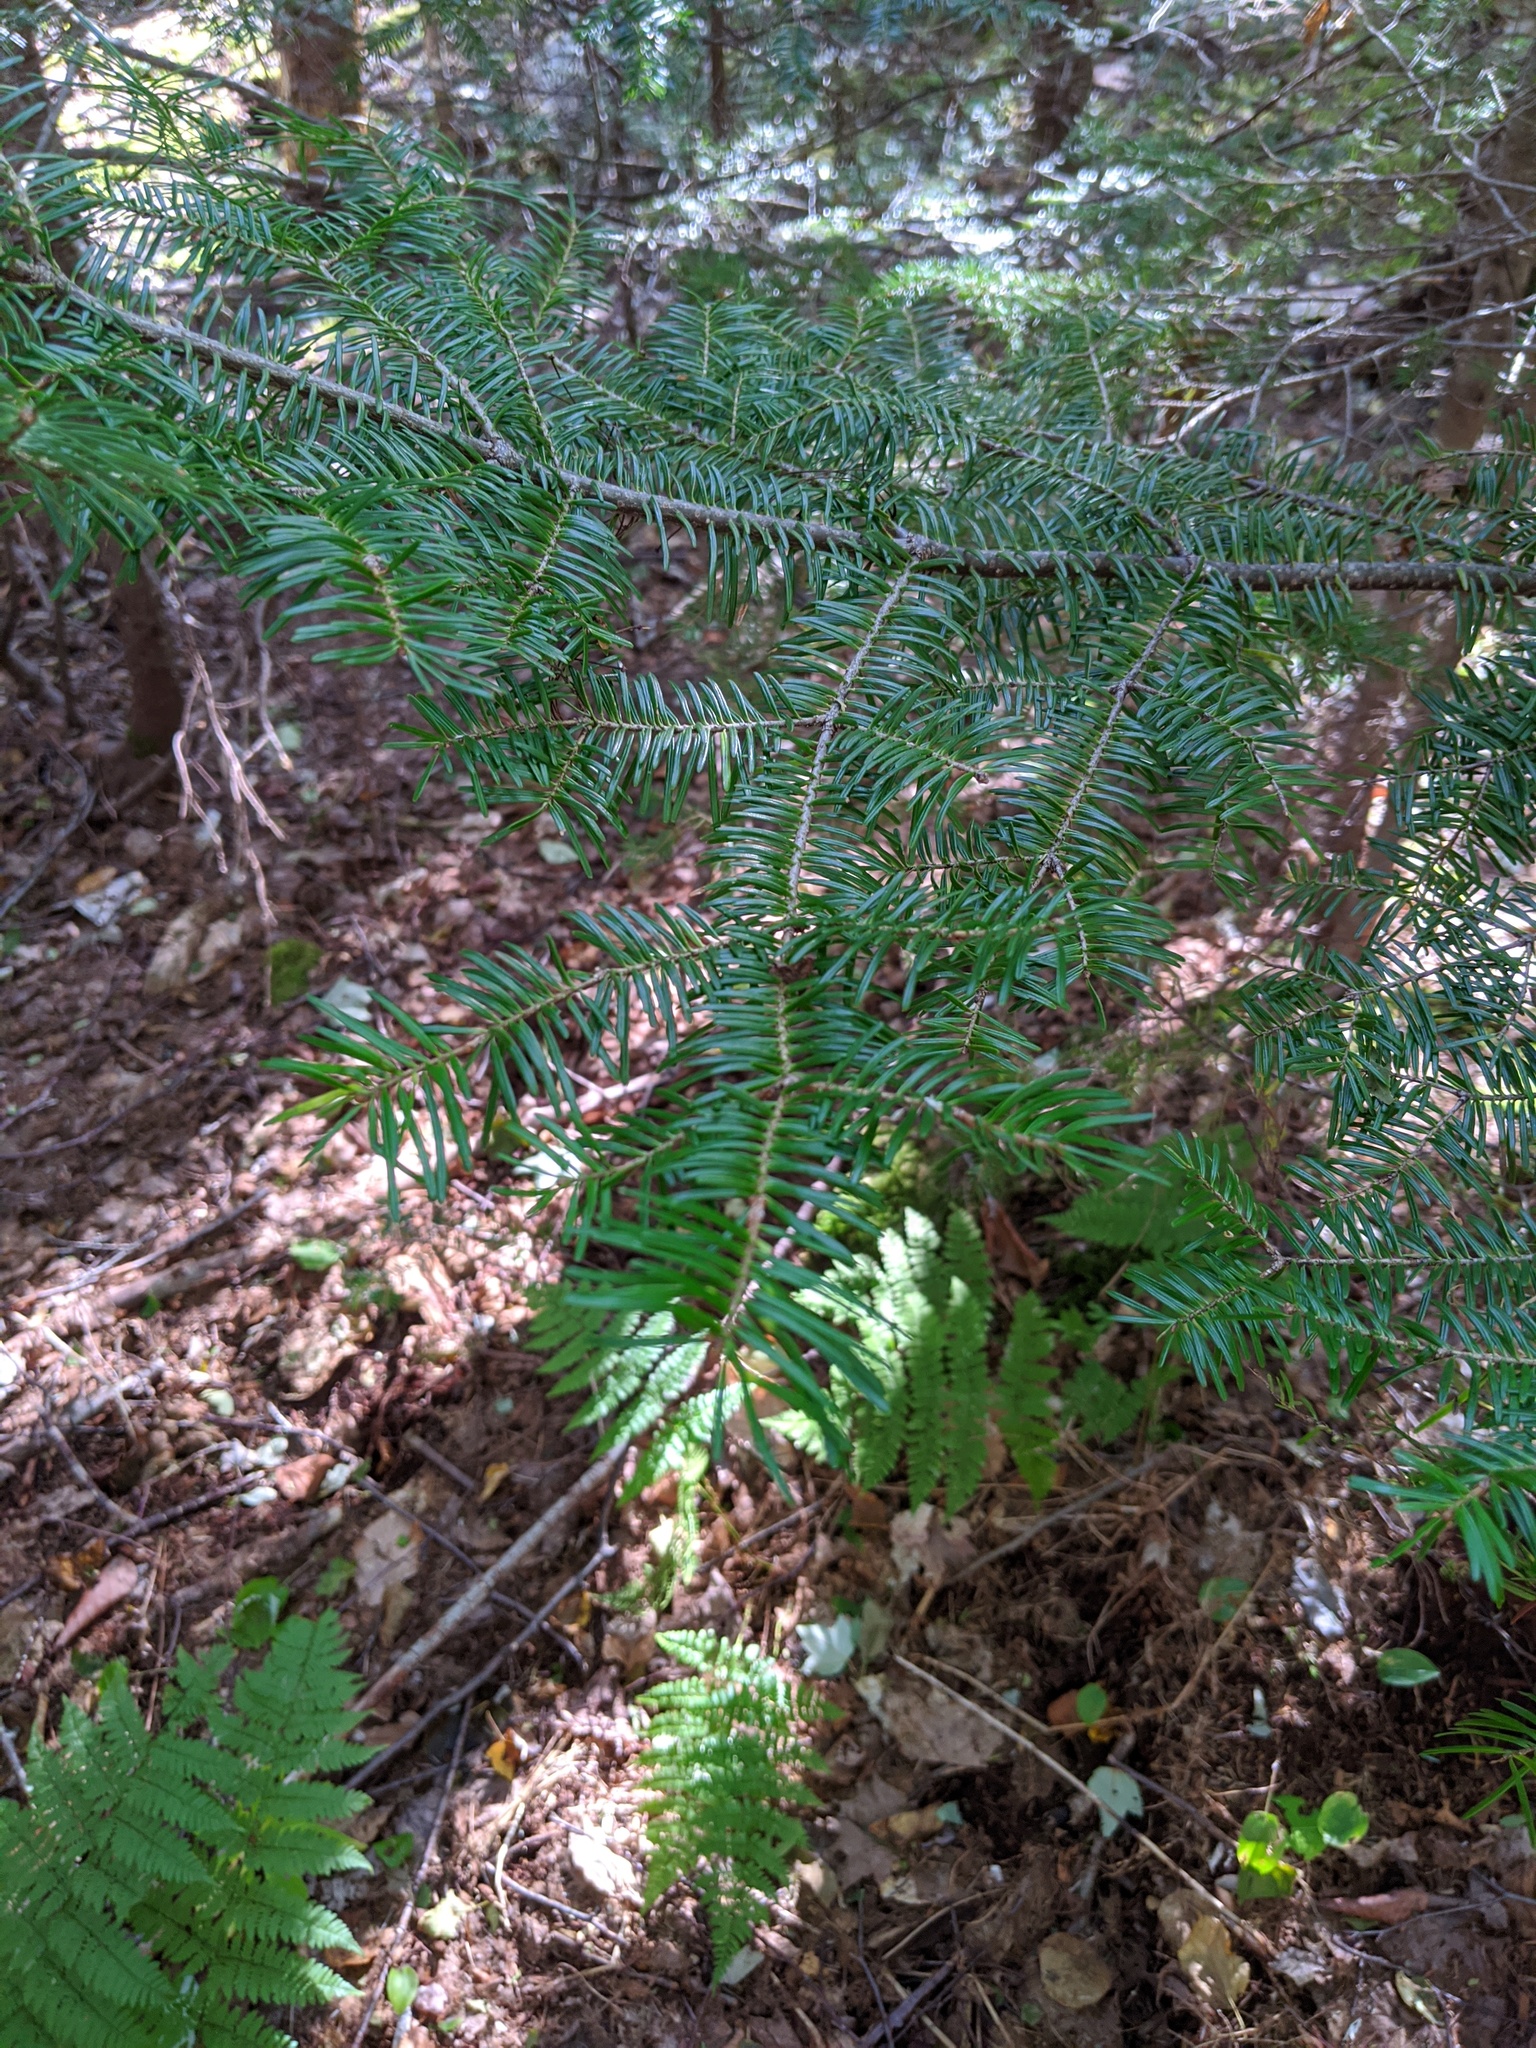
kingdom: Plantae
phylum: Tracheophyta
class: Pinopsida
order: Pinales
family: Pinaceae
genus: Abies
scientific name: Abies balsamea
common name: Balsam fir
